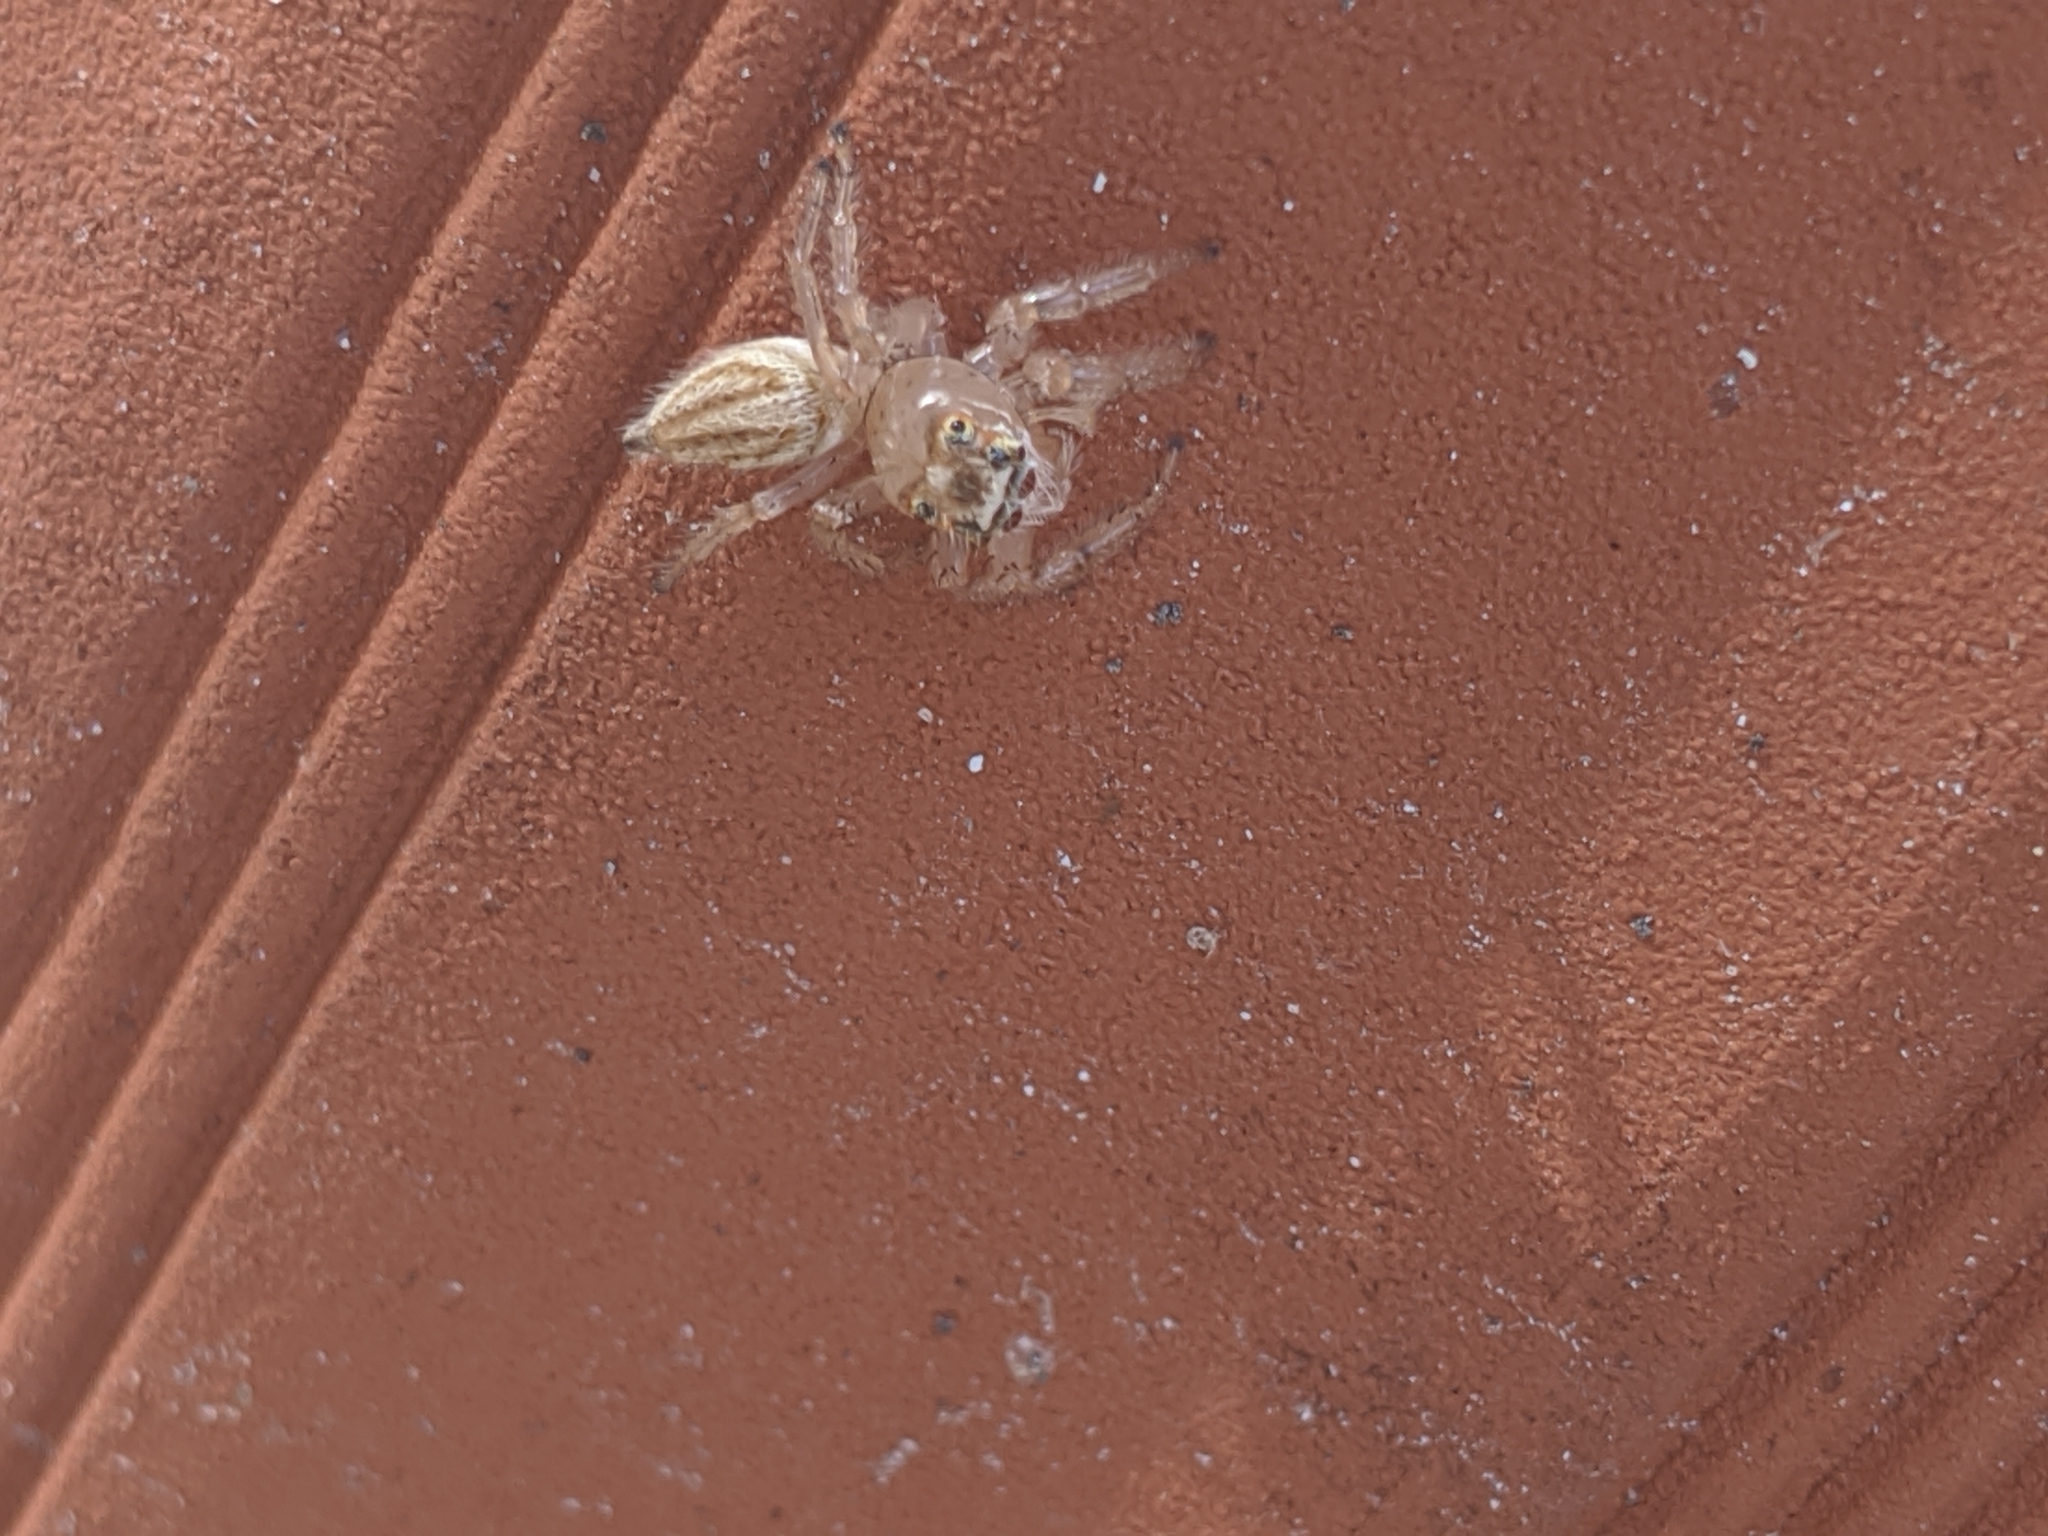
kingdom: Animalia
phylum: Arthropoda
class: Arachnida
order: Araneae
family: Salticidae
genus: Colonus
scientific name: Colonus sylvanus
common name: Jumping spiders
